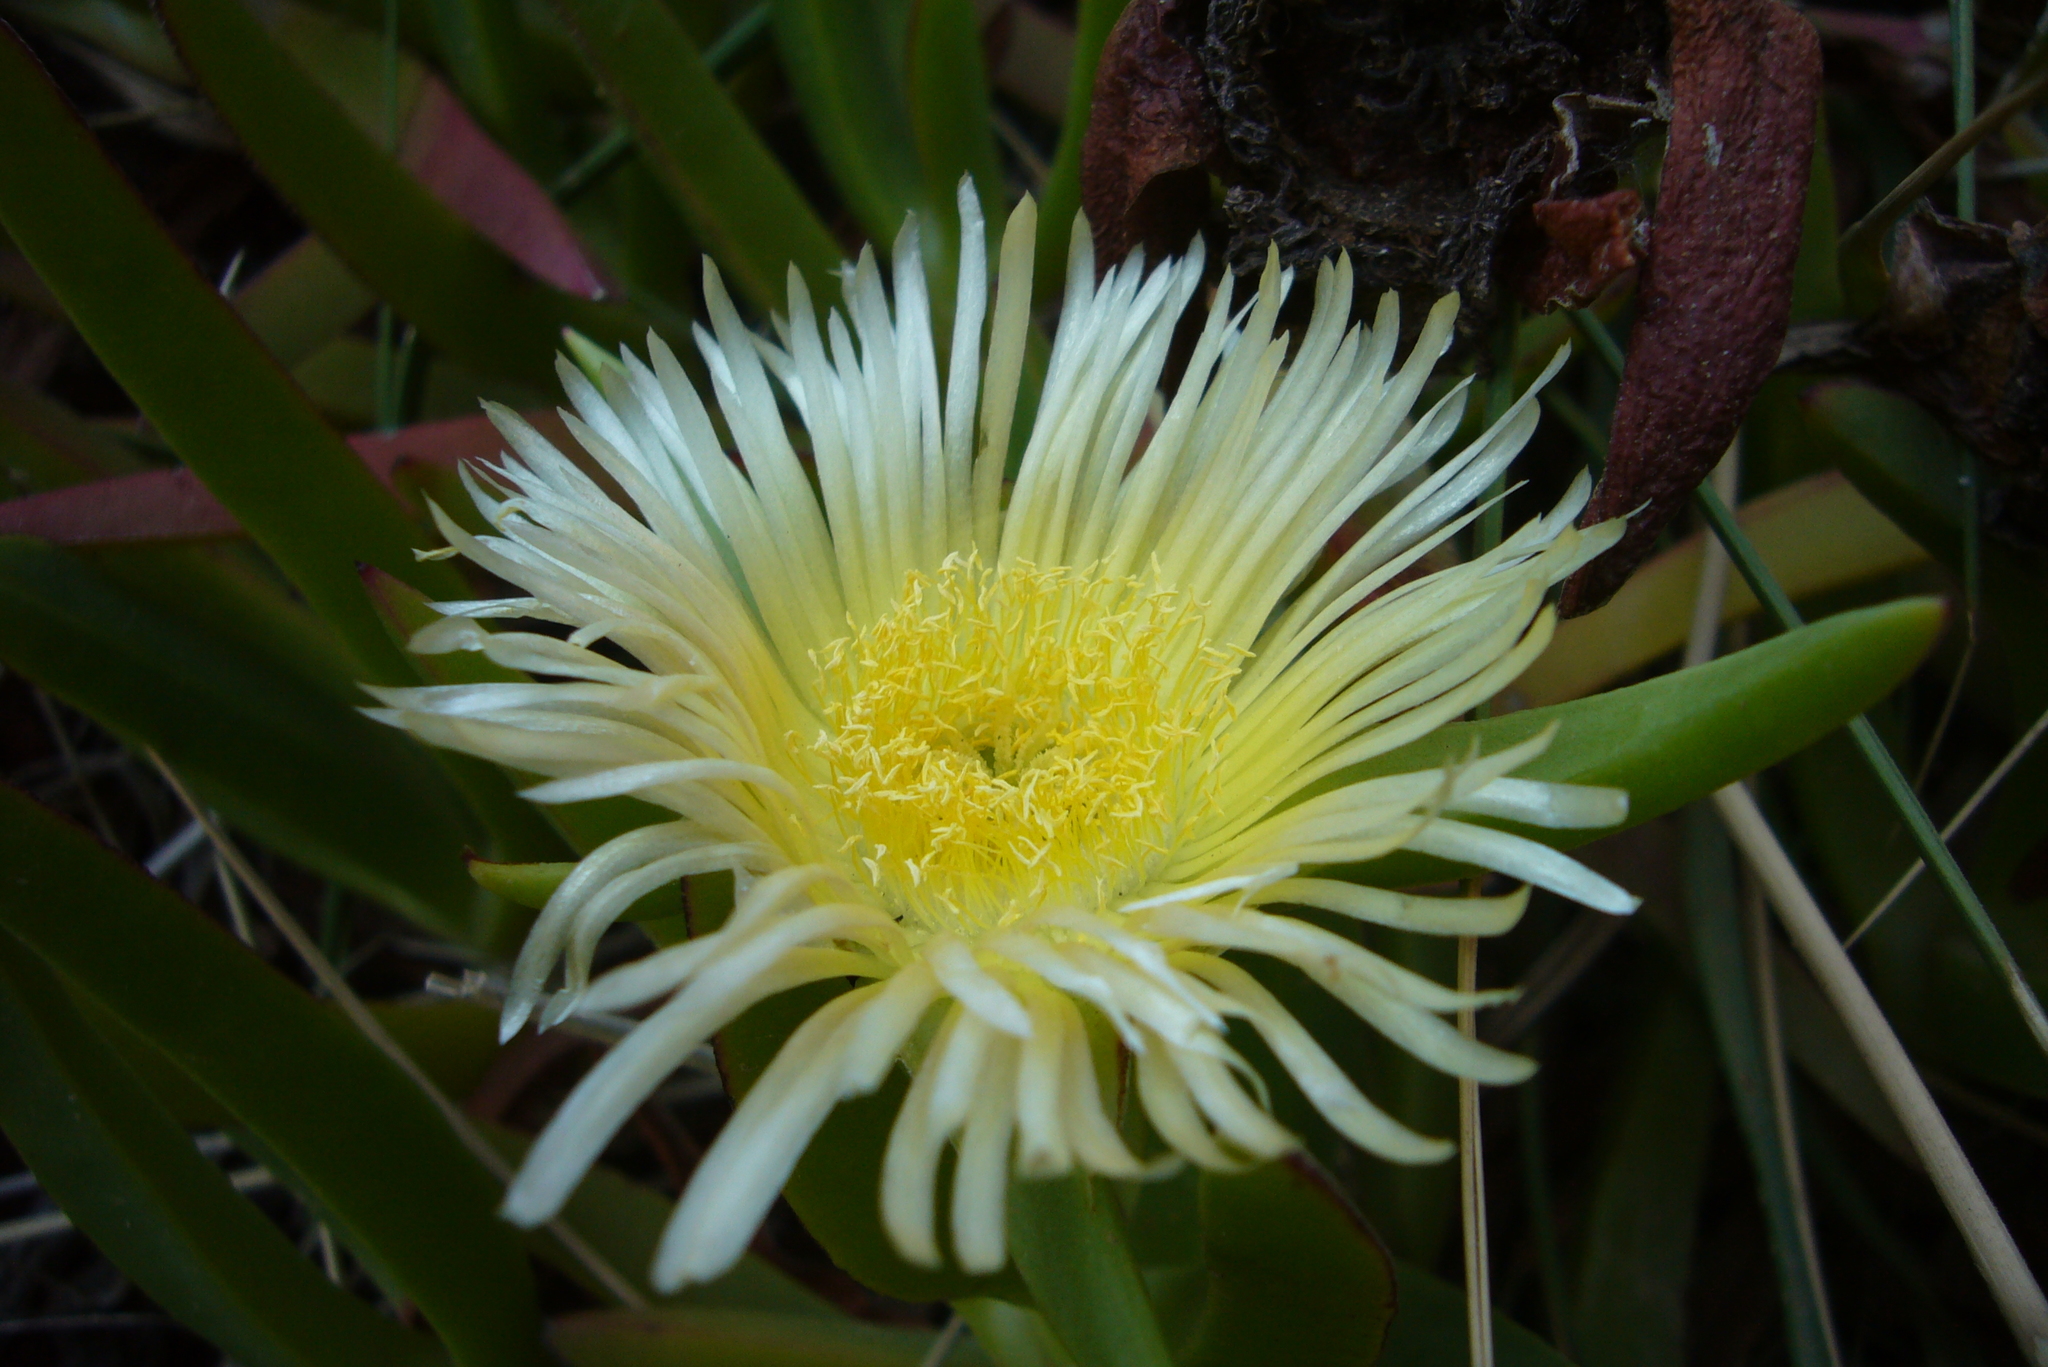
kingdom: Plantae
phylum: Tracheophyta
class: Magnoliopsida
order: Caryophyllales
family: Aizoaceae
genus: Carpobrotus
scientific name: Carpobrotus edulis
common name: Hottentot-fig
